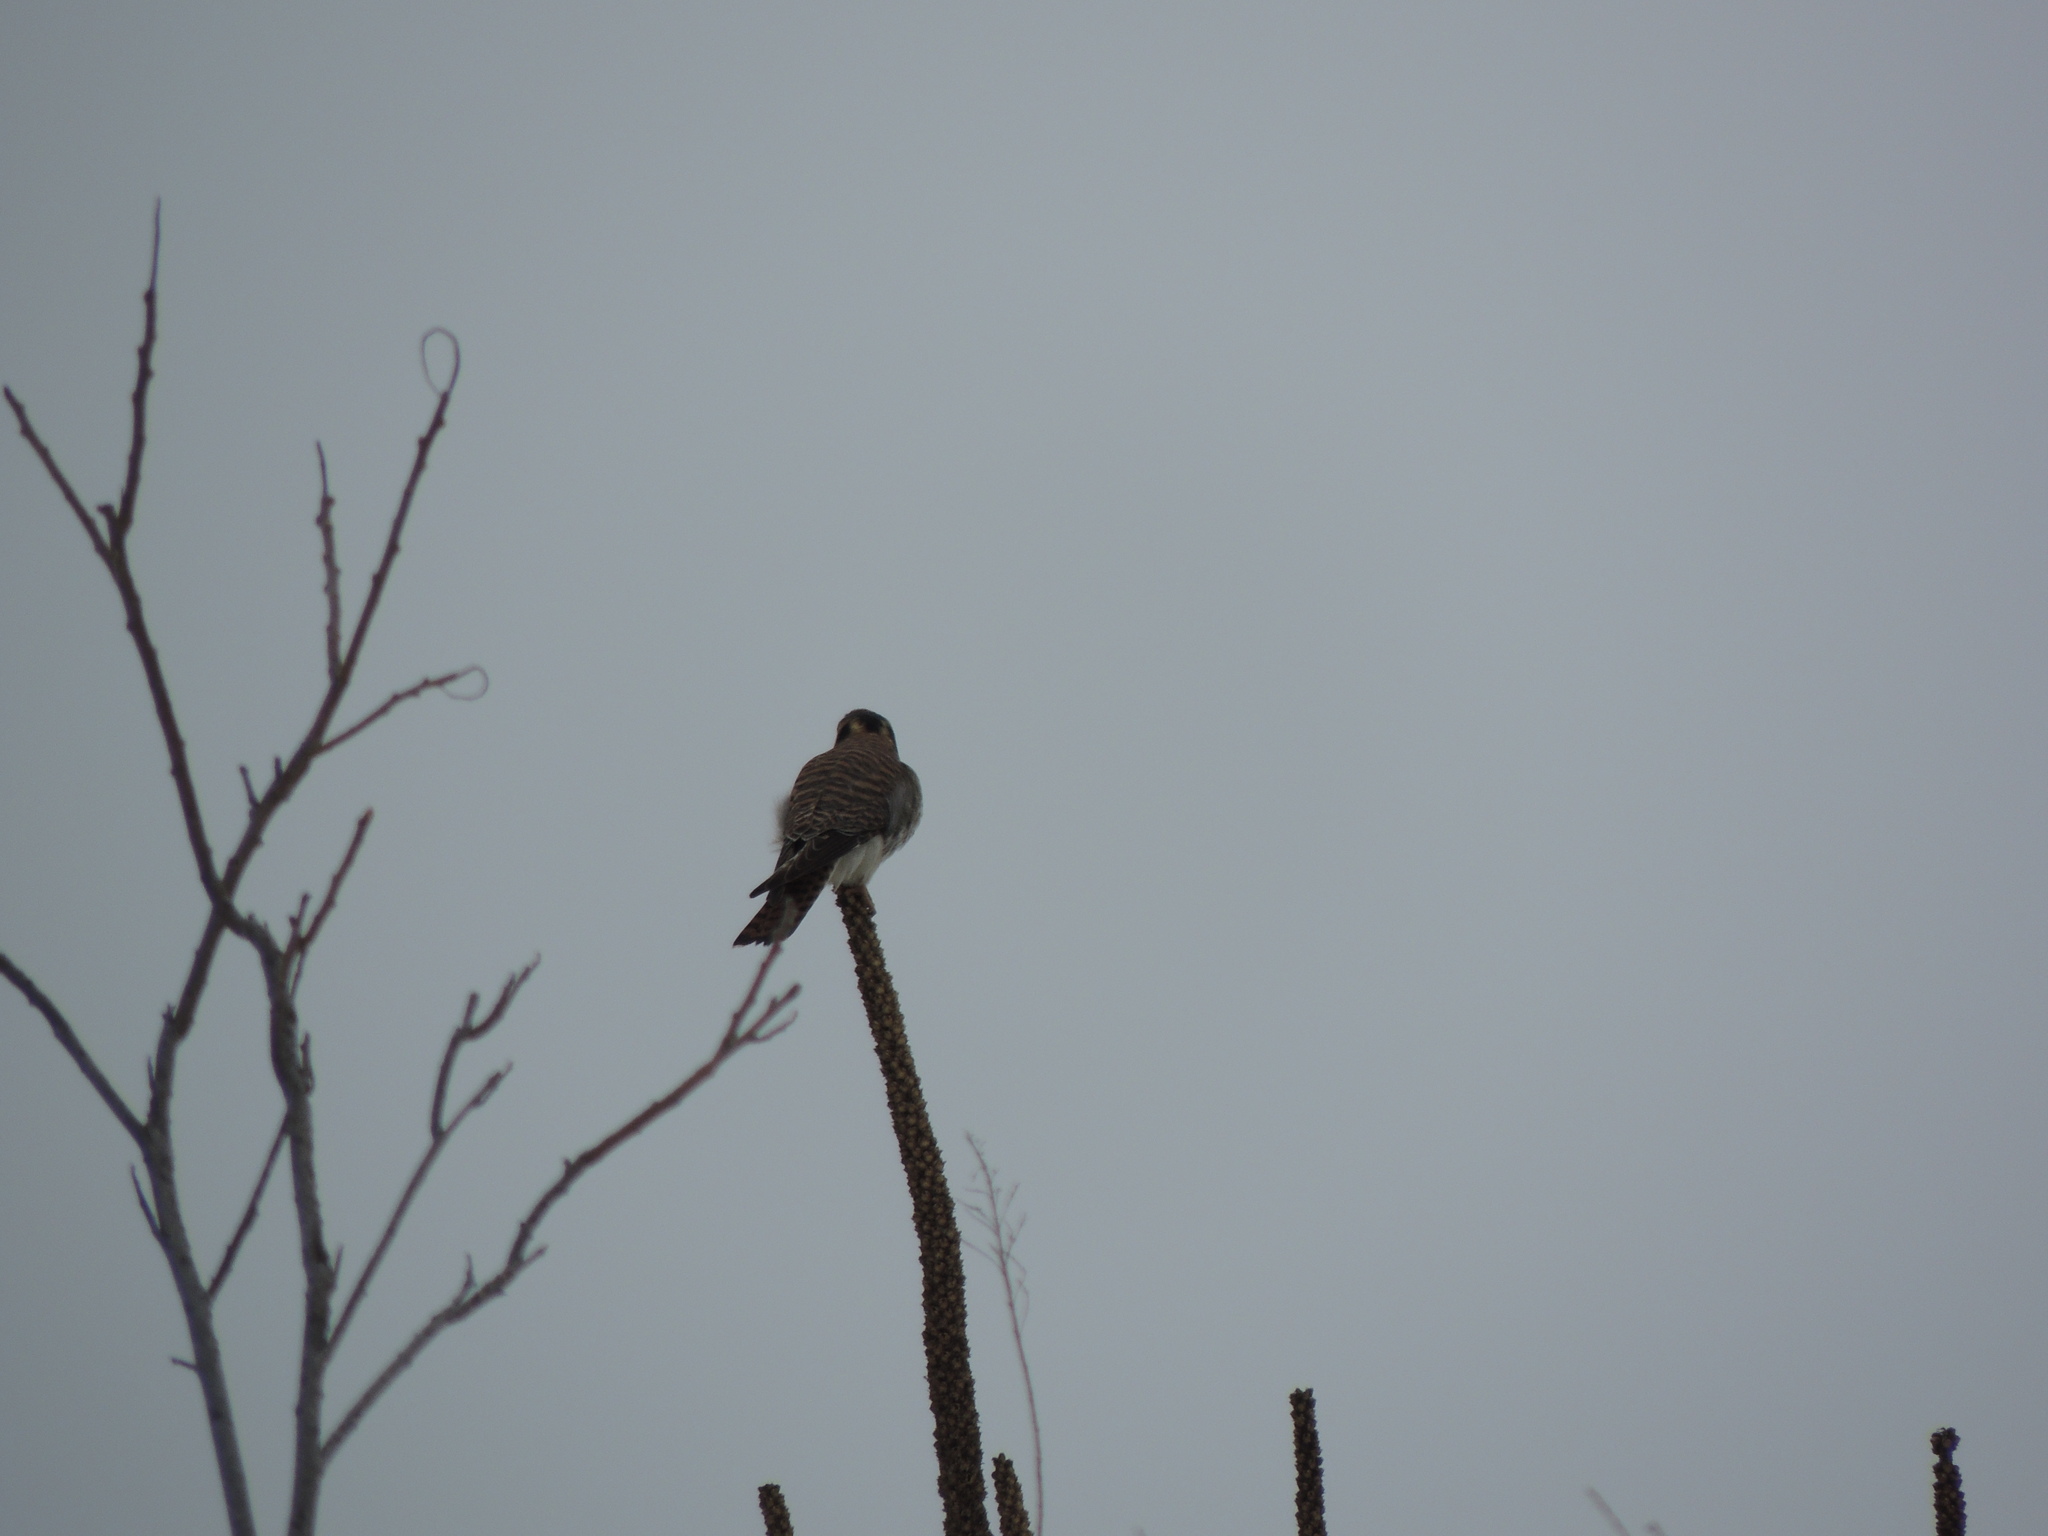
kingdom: Animalia
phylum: Chordata
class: Aves
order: Falconiformes
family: Falconidae
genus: Falco
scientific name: Falco sparverius
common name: American kestrel
